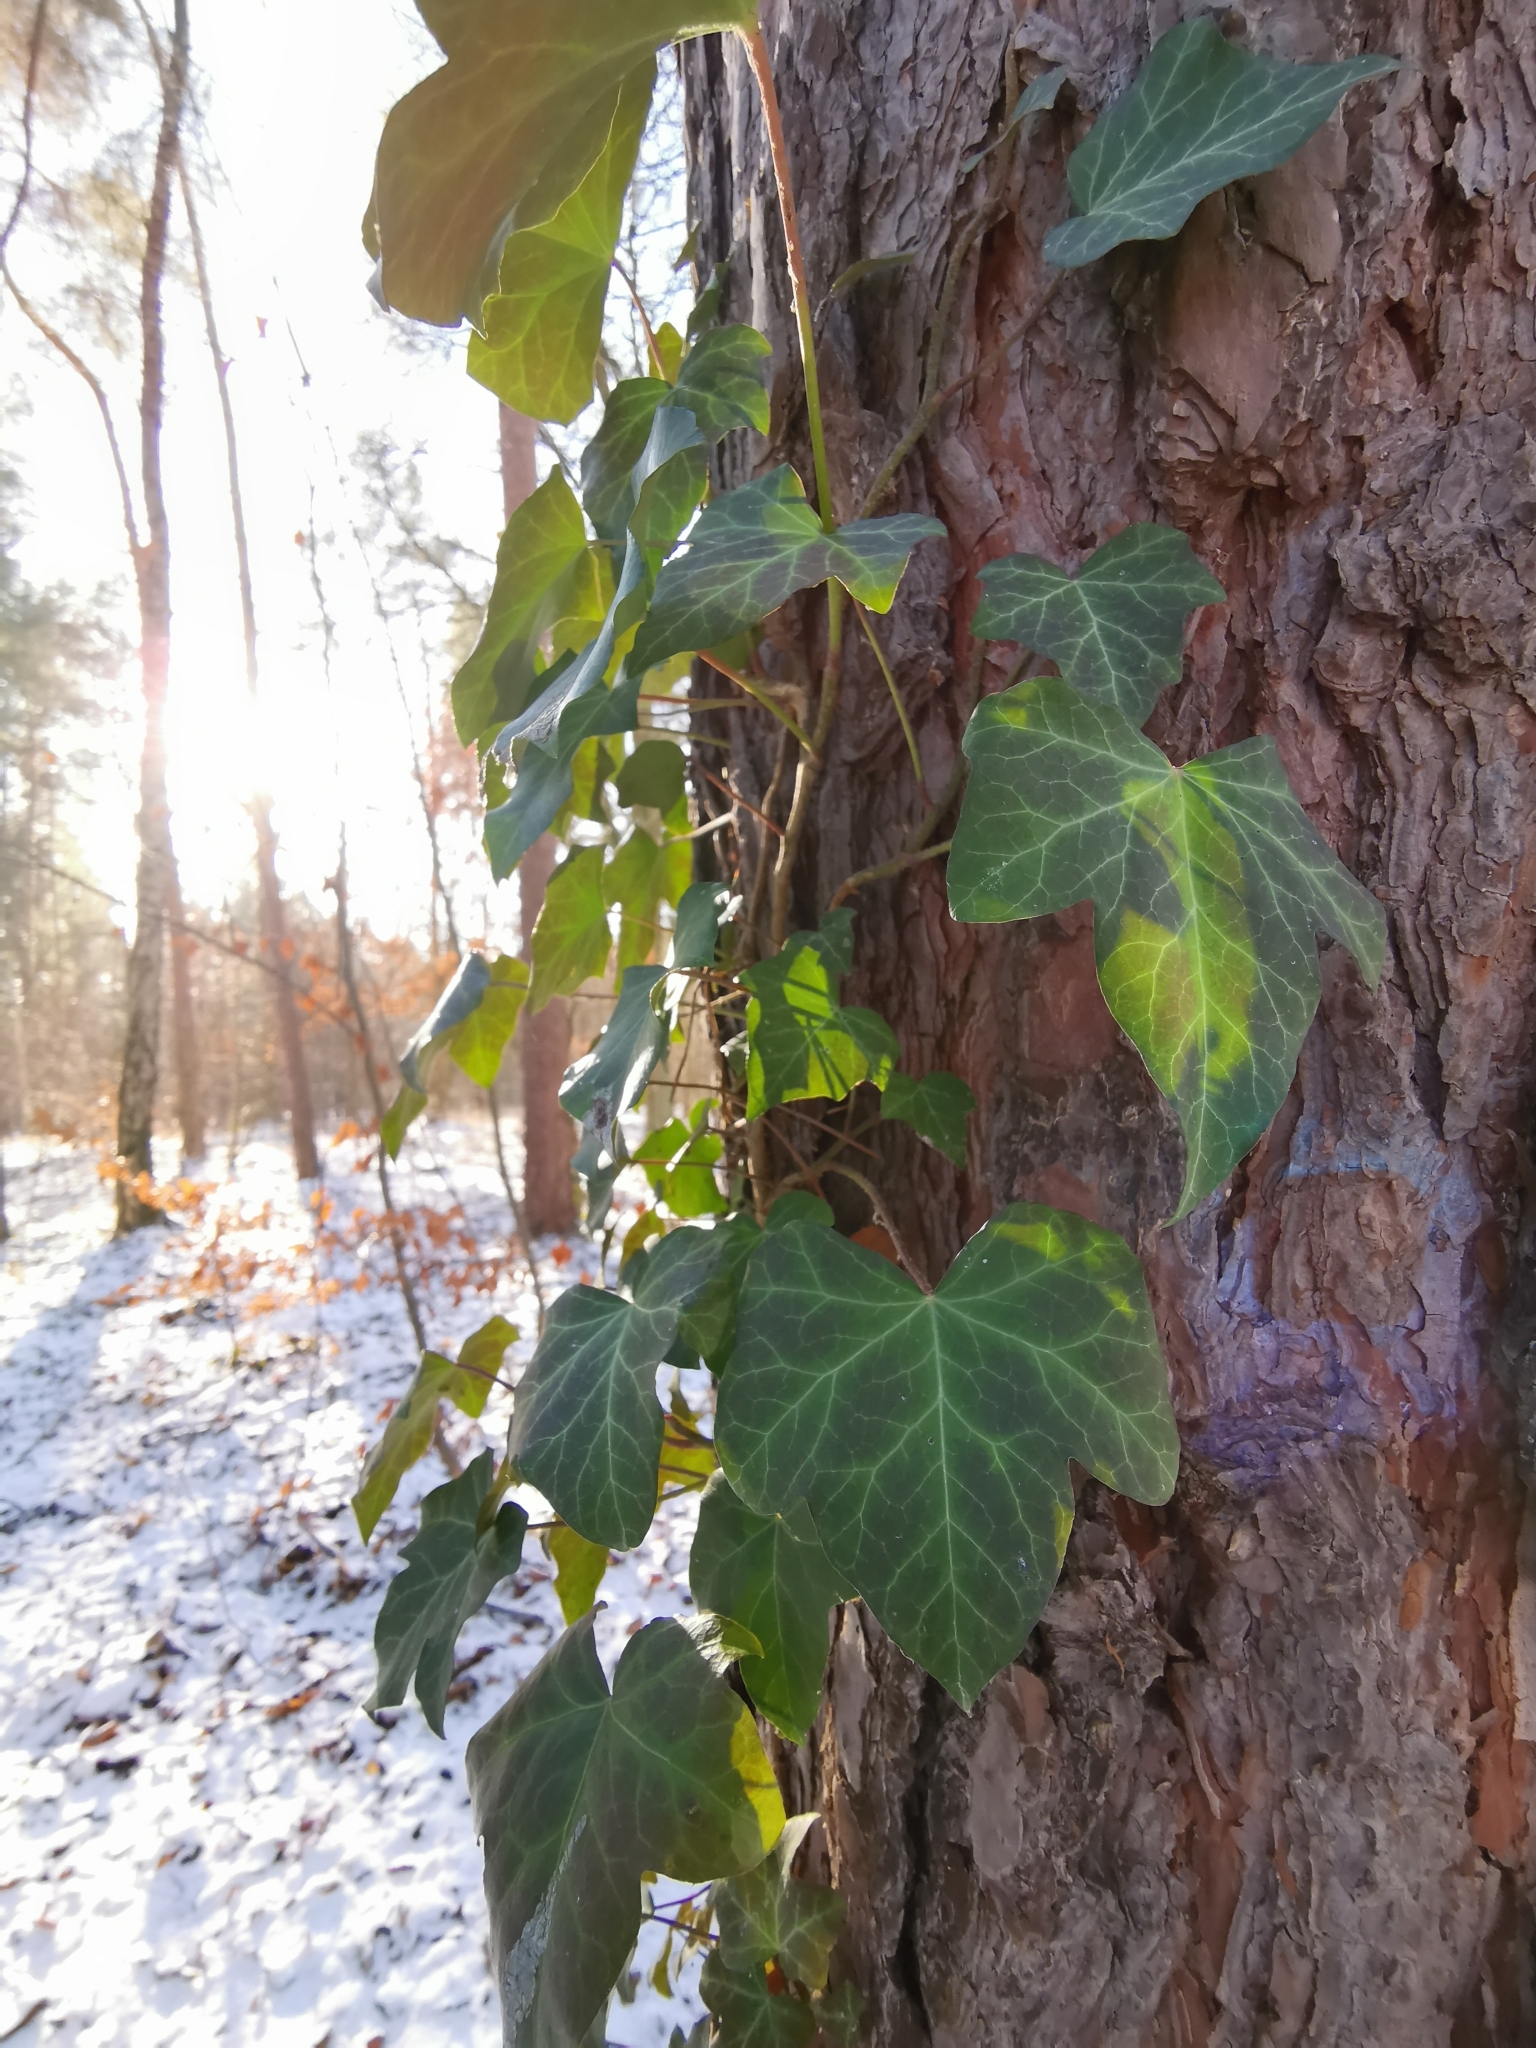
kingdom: Plantae
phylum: Tracheophyta
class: Magnoliopsida
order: Apiales
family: Araliaceae
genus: Hedera
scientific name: Hedera helix
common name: Ivy
